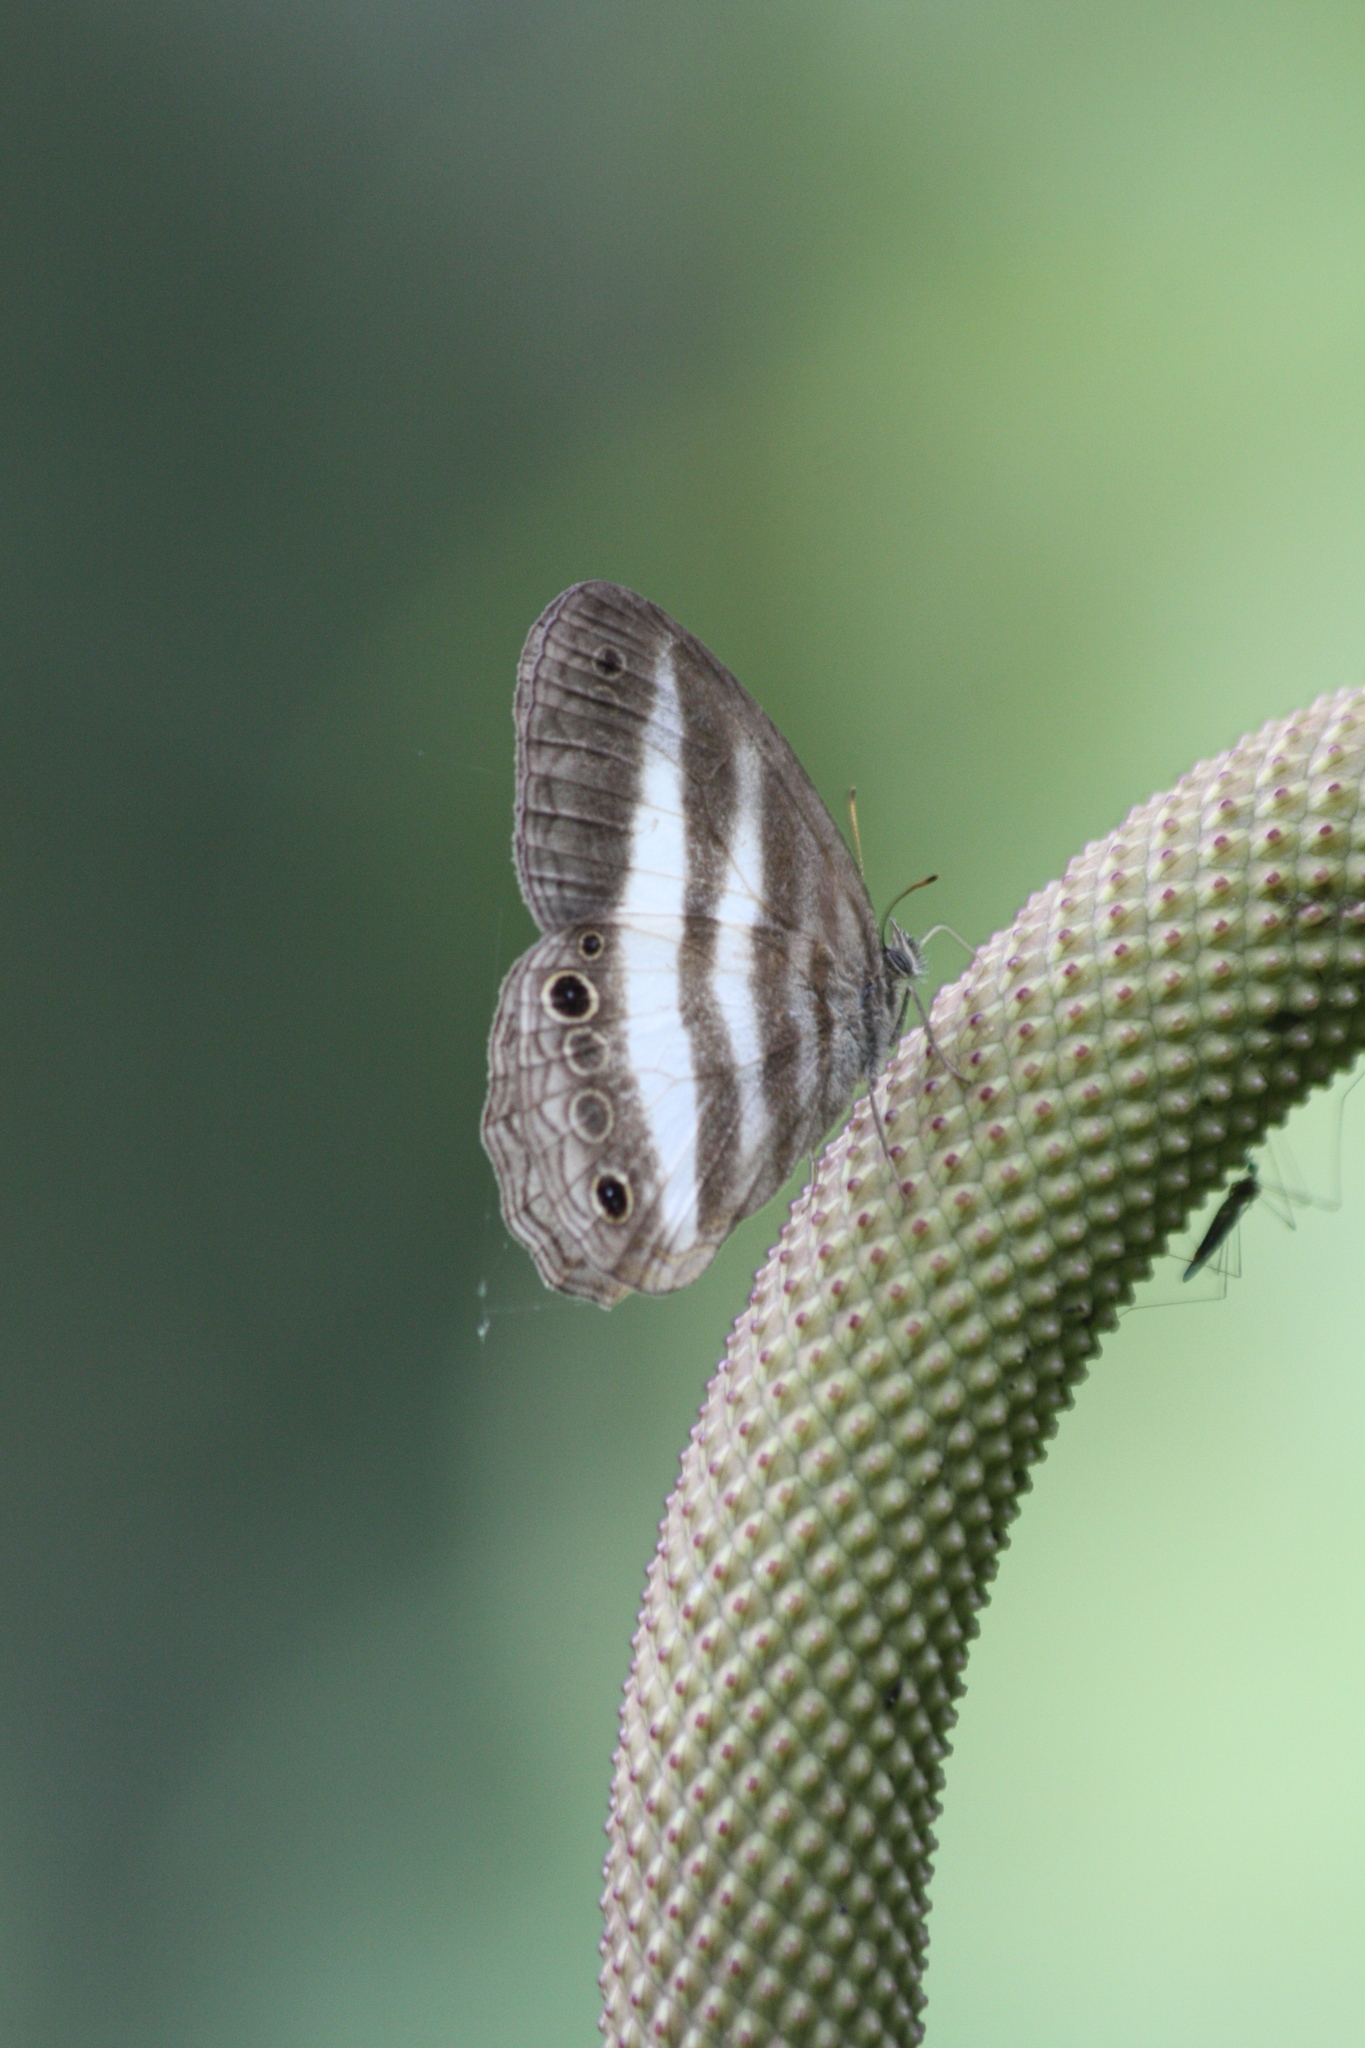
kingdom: Animalia
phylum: Arthropoda
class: Insecta
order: Lepidoptera
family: Nymphalidae
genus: Pareuptychia
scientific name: Pareuptychia hesione
